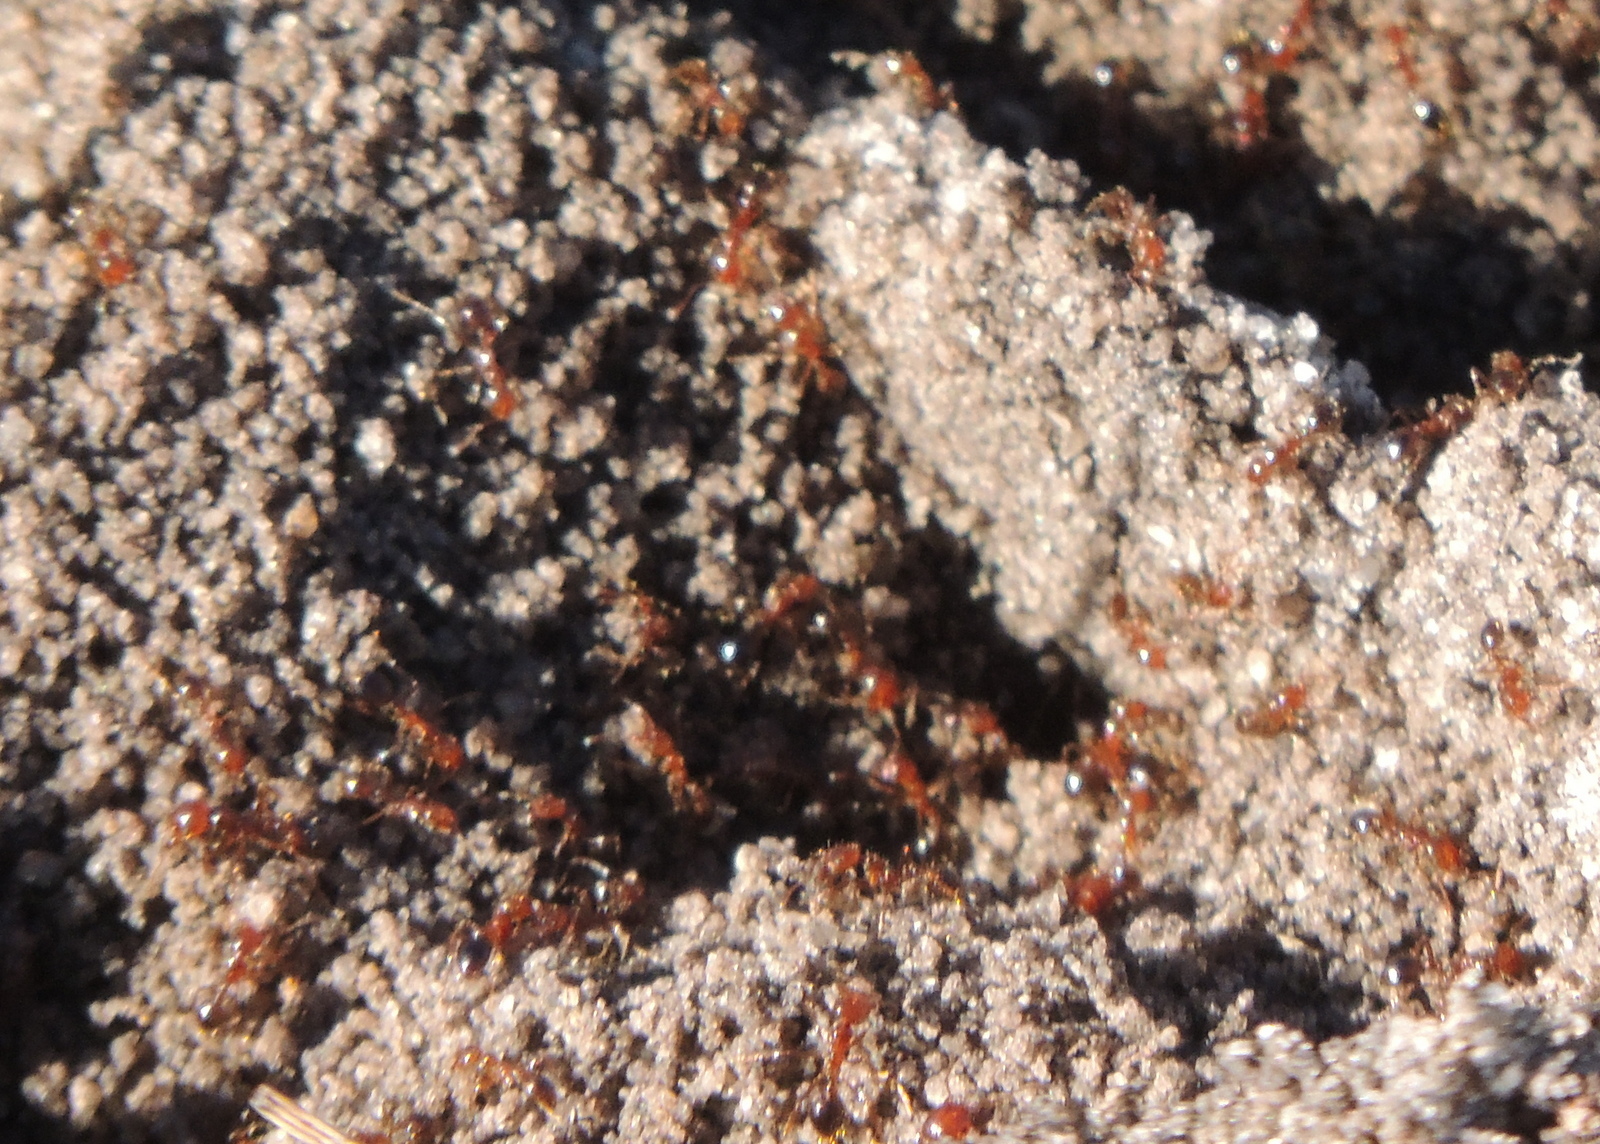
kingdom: Animalia
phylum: Arthropoda
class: Insecta
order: Hymenoptera
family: Formicidae
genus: Solenopsis
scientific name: Solenopsis invicta
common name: Red imported fire ant
